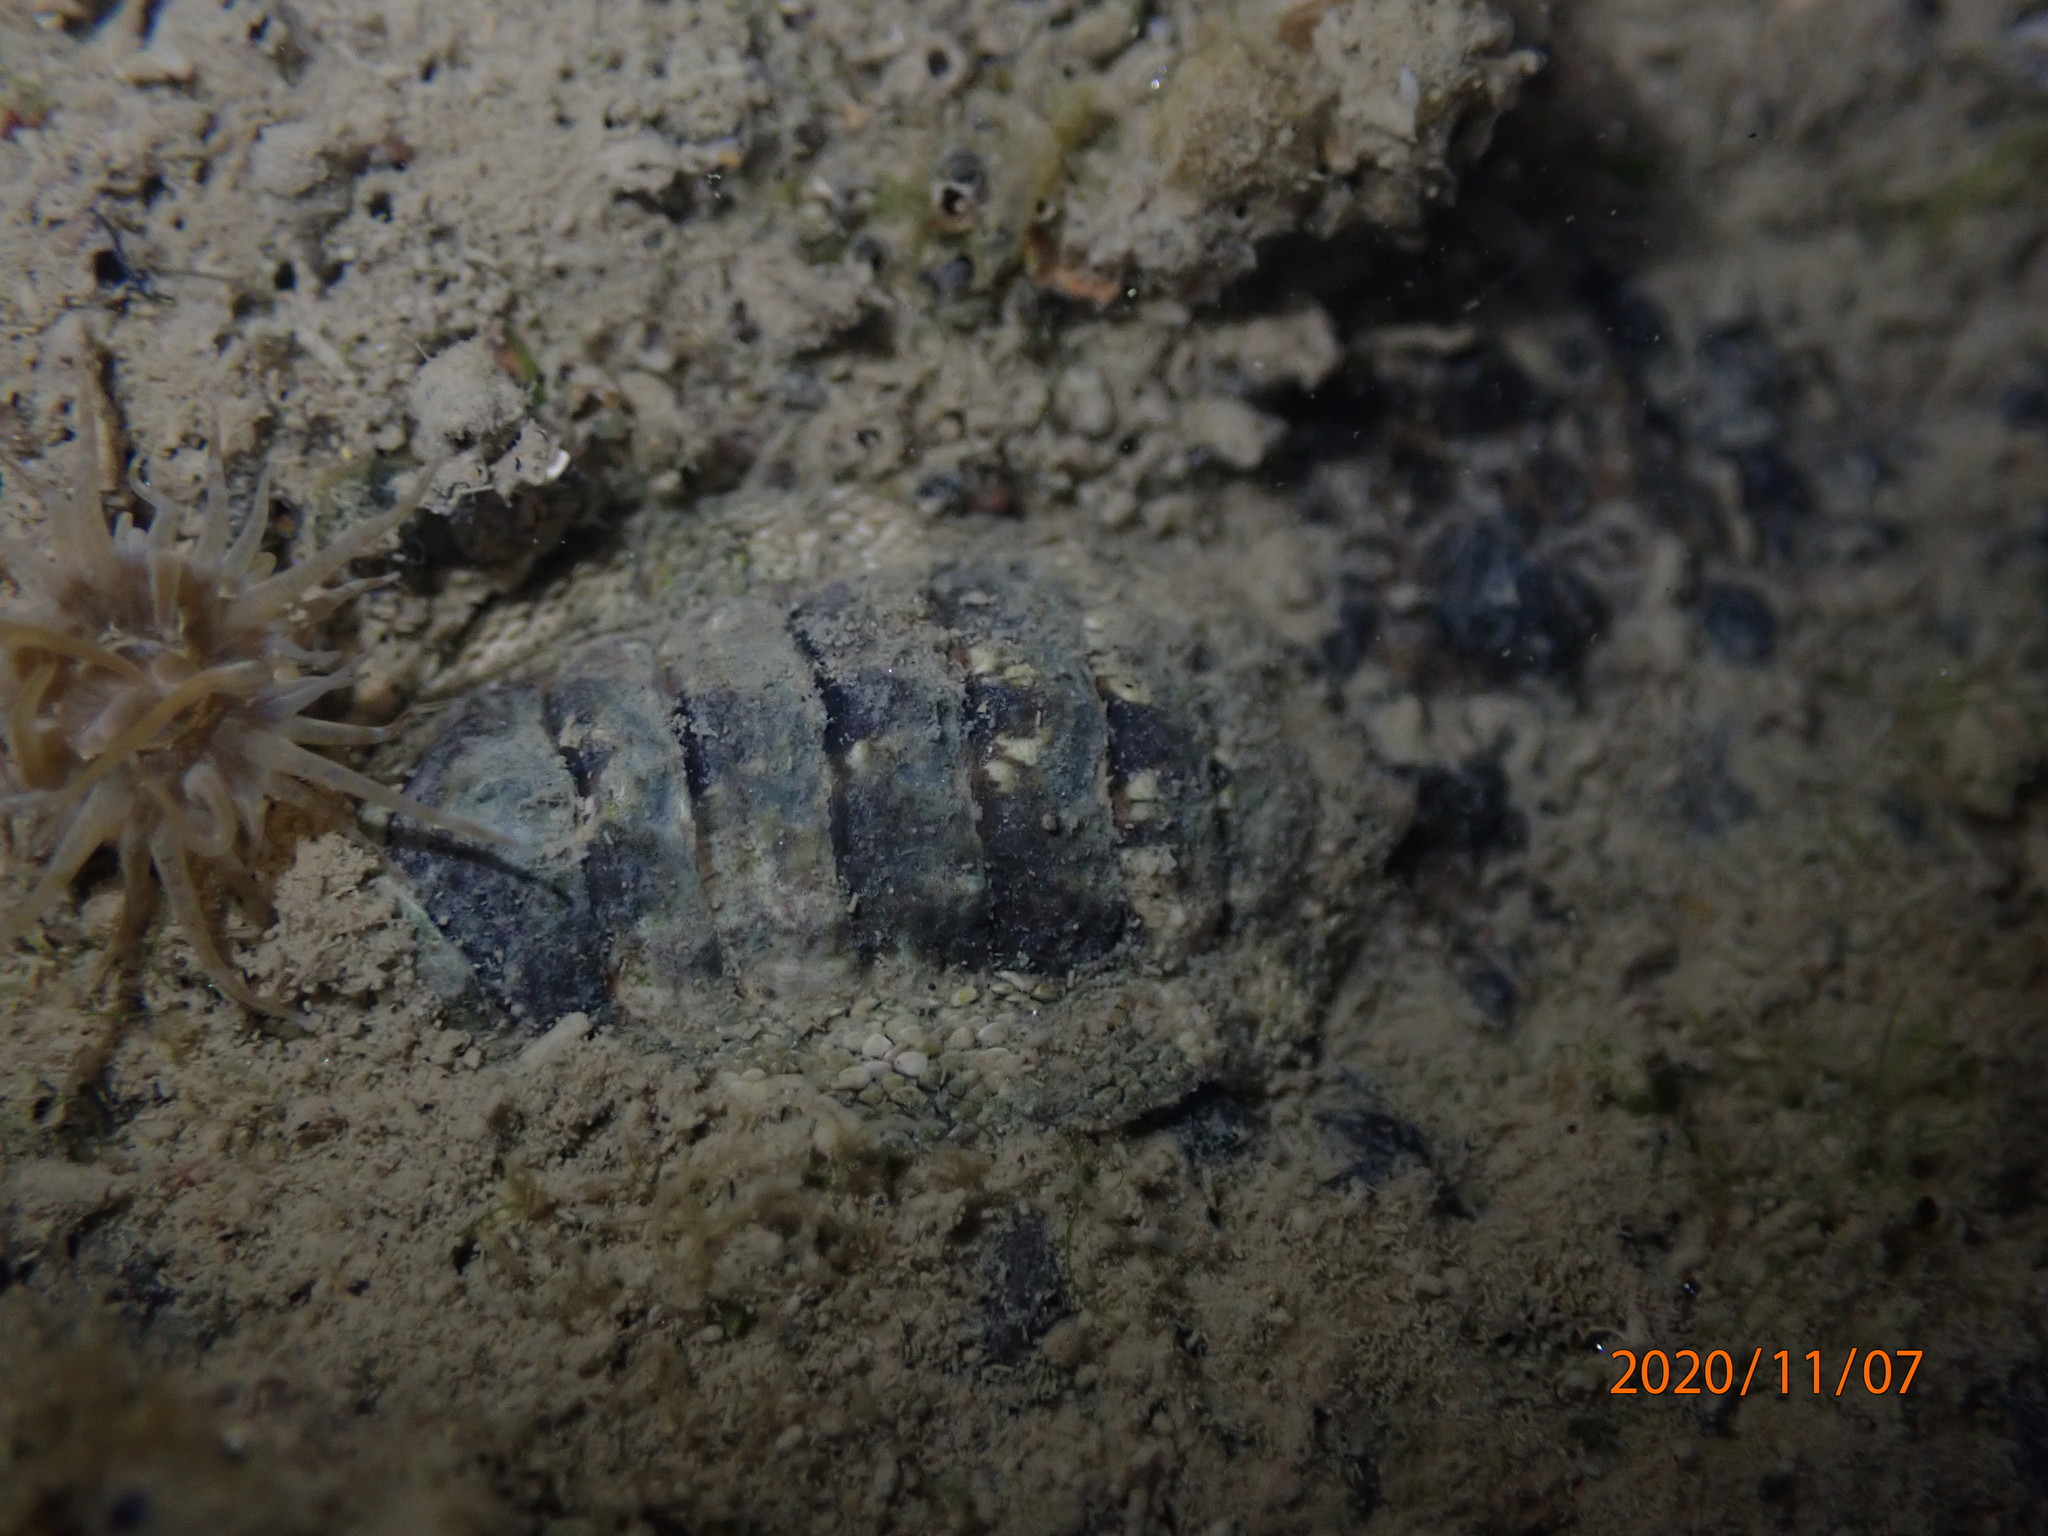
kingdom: Animalia
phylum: Mollusca
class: Polyplacophora
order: Chitonida
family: Chitonidae
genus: Sypharochiton
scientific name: Sypharochiton pelliserpentis
